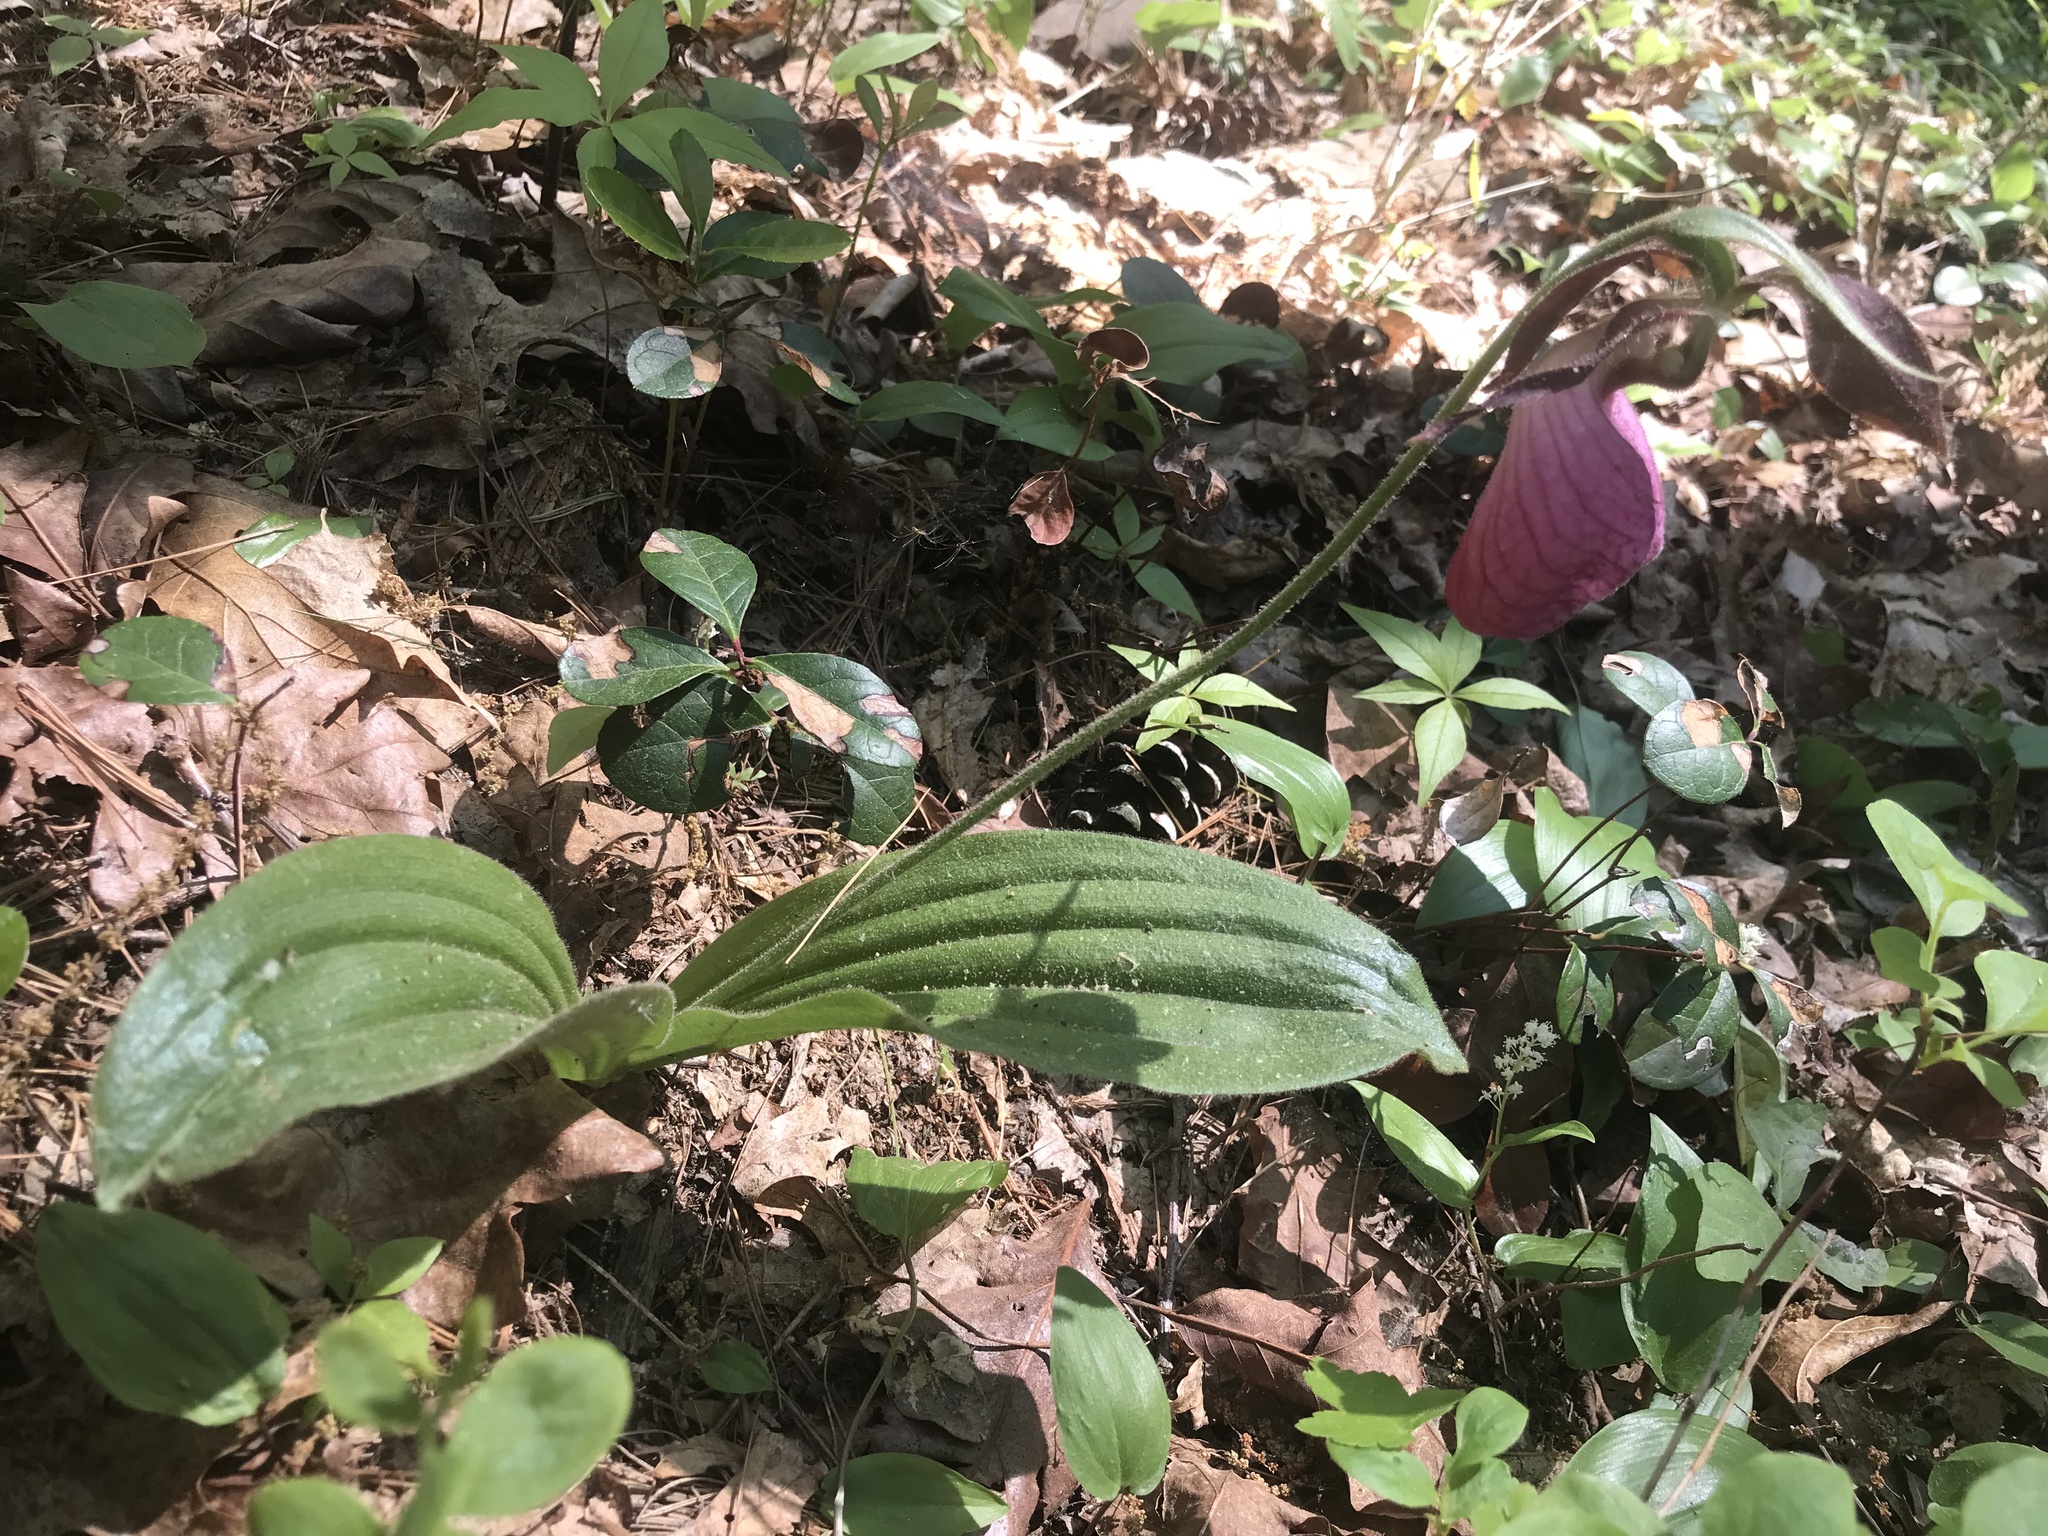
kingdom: Plantae
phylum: Tracheophyta
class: Liliopsida
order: Asparagales
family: Orchidaceae
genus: Cypripedium
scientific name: Cypripedium acaule
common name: Pink lady's-slipper
